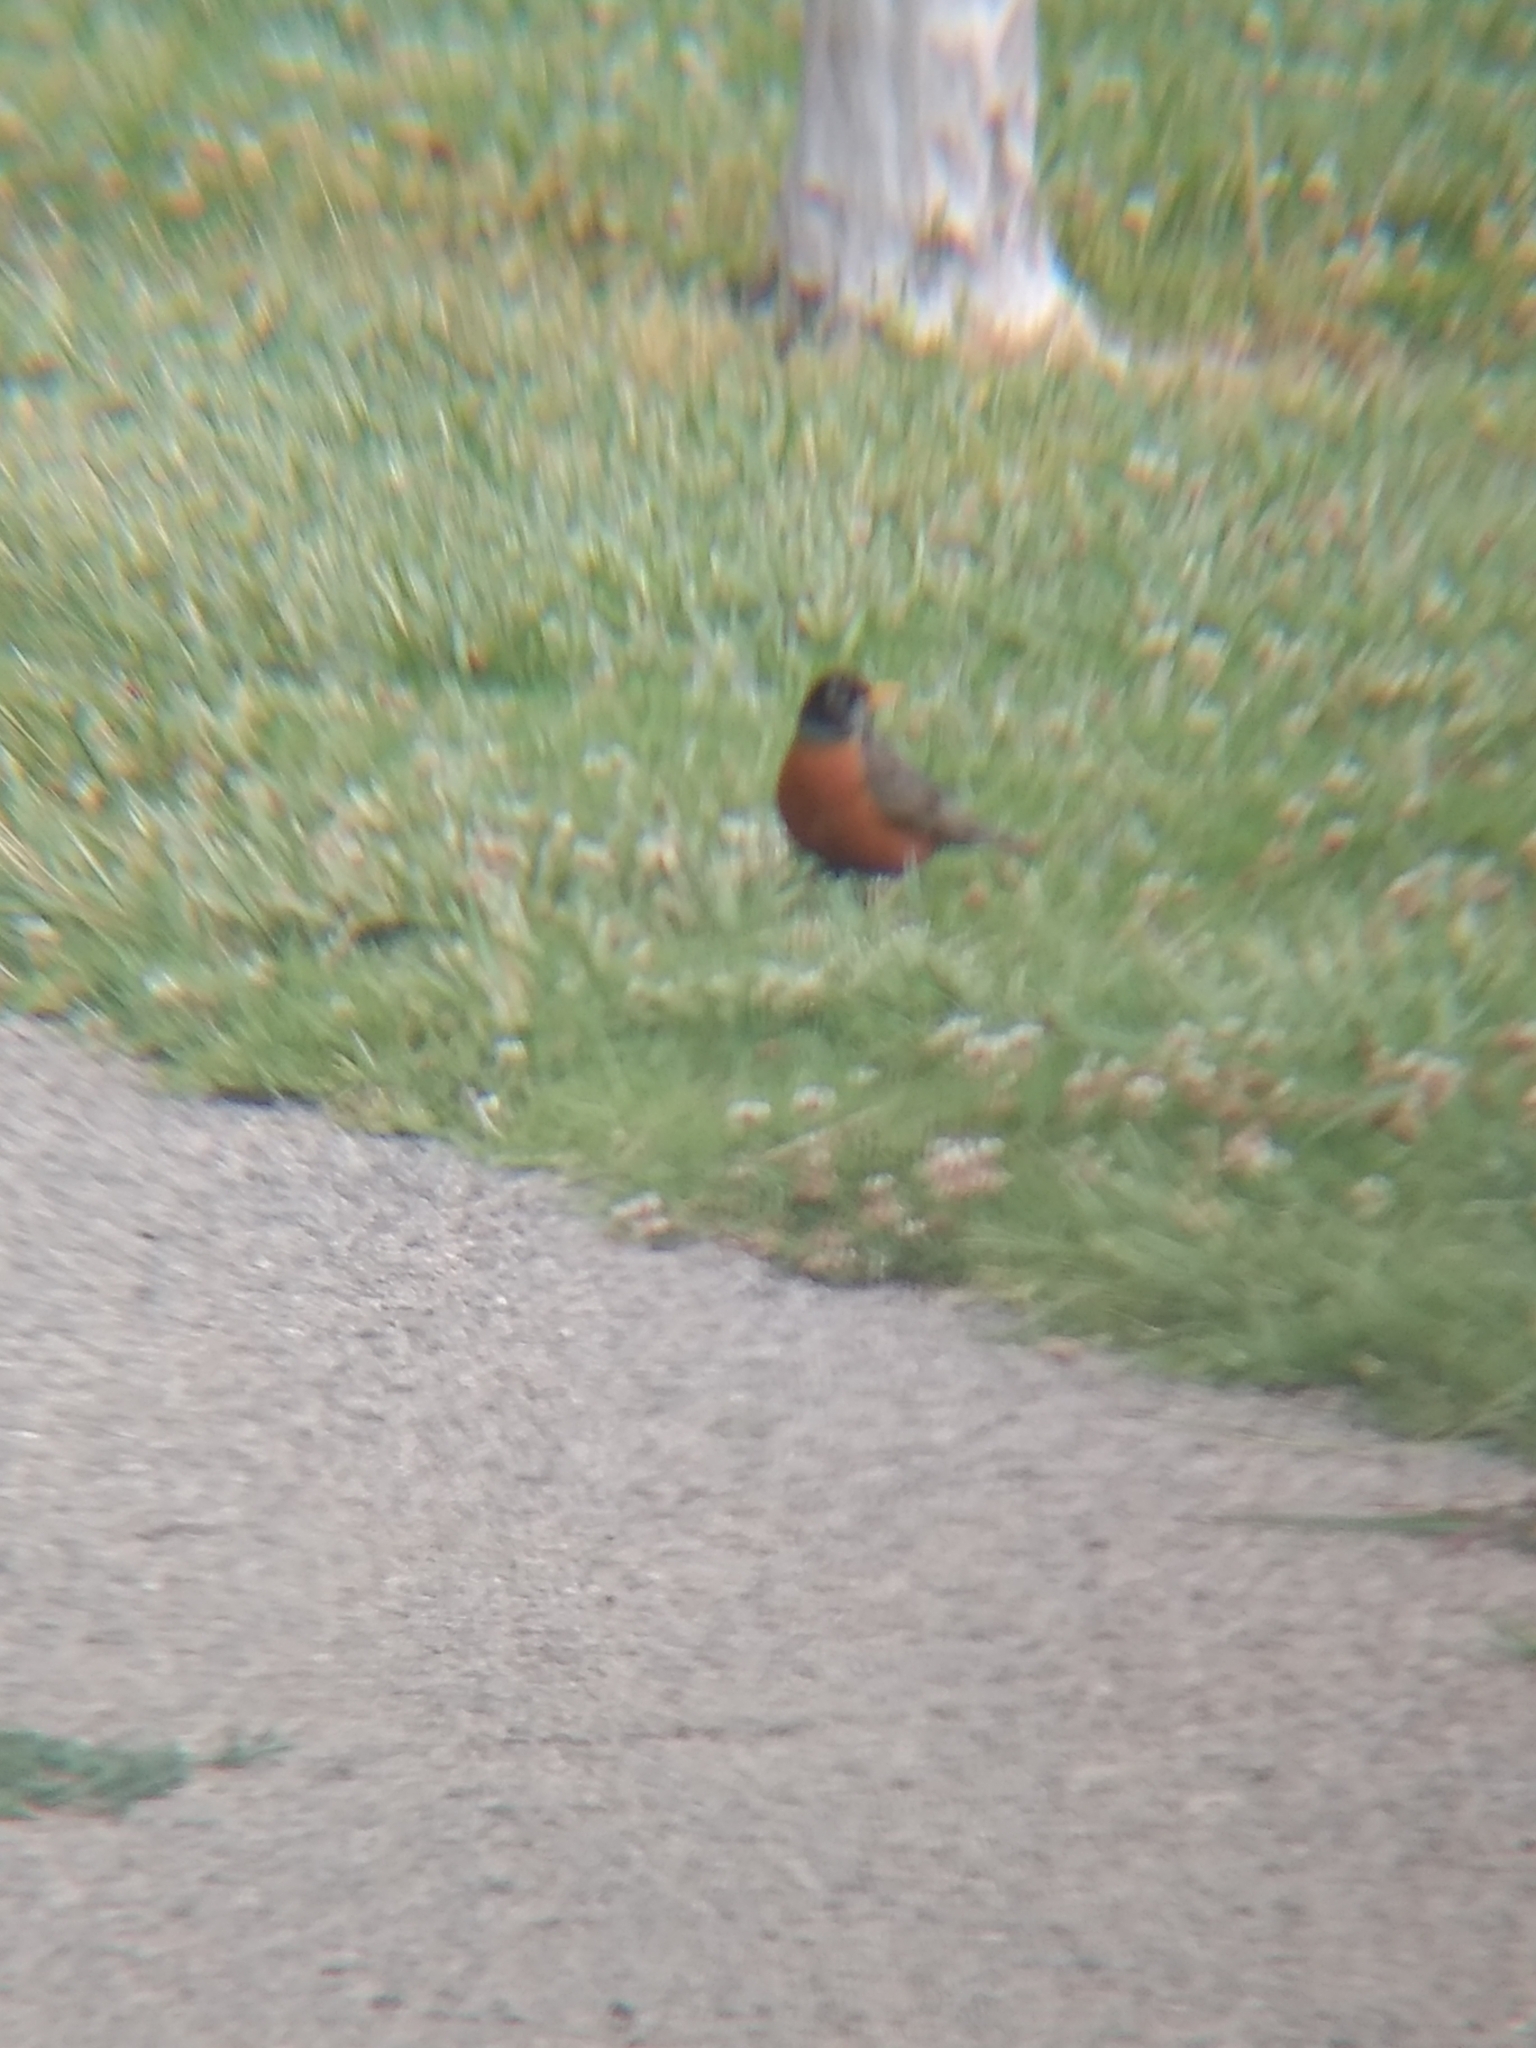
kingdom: Animalia
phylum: Chordata
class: Aves
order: Passeriformes
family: Turdidae
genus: Turdus
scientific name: Turdus migratorius
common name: American robin
